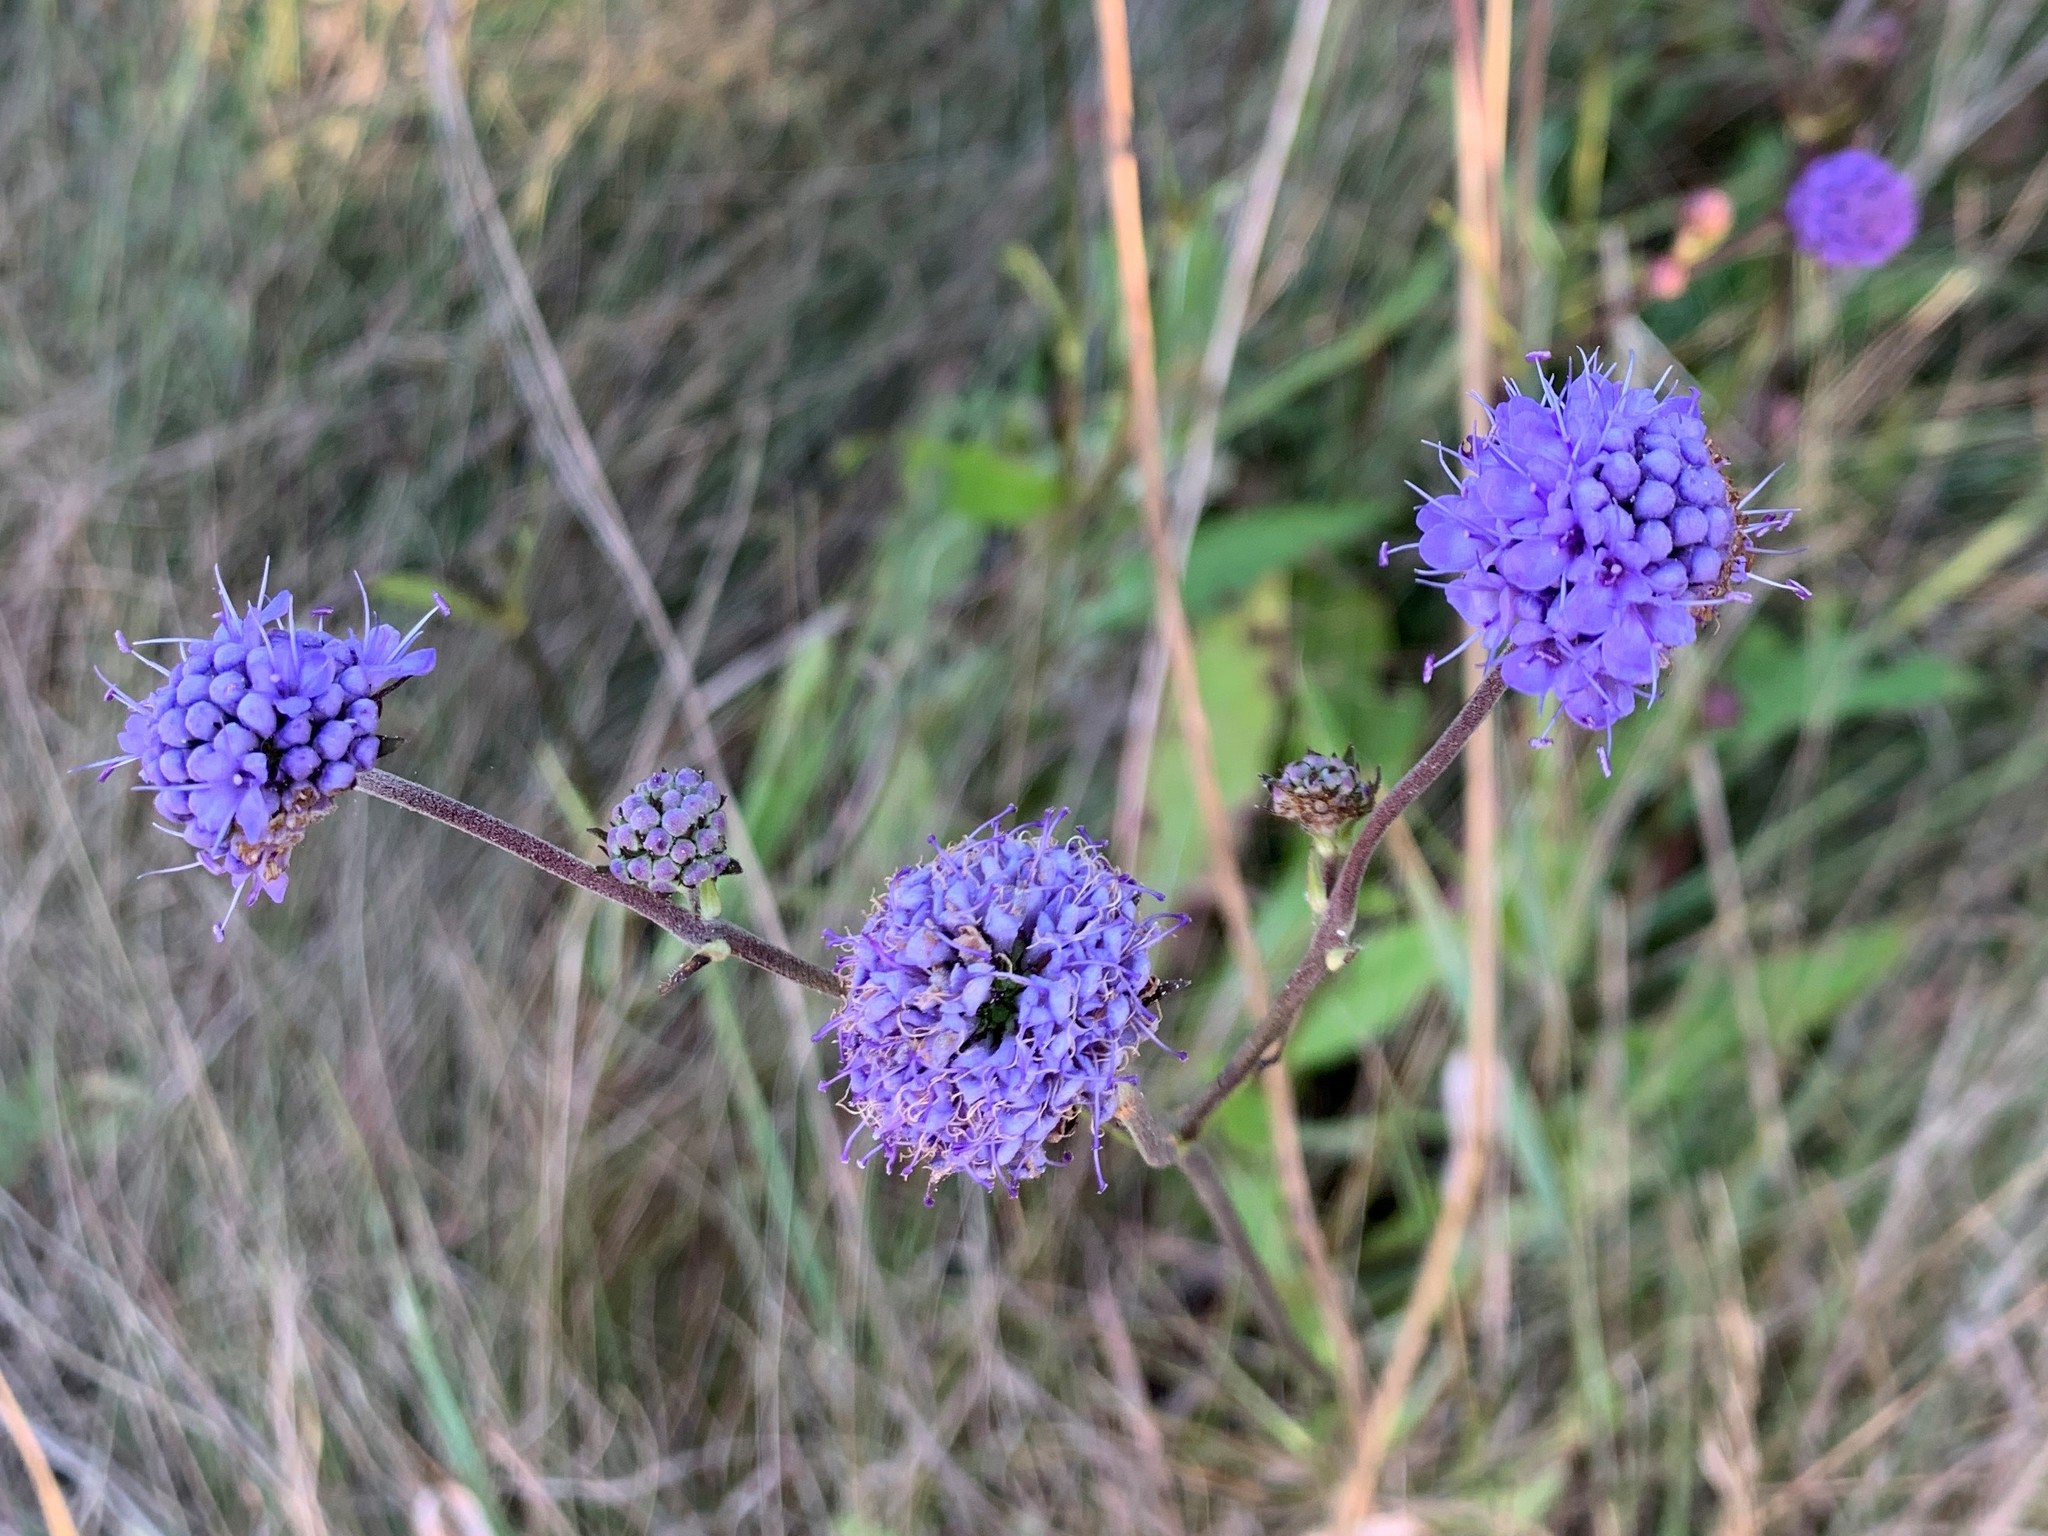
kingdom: Plantae
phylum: Tracheophyta
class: Magnoliopsida
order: Dipsacales
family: Caprifoliaceae
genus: Succisa
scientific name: Succisa pratensis
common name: Devil's-bit
